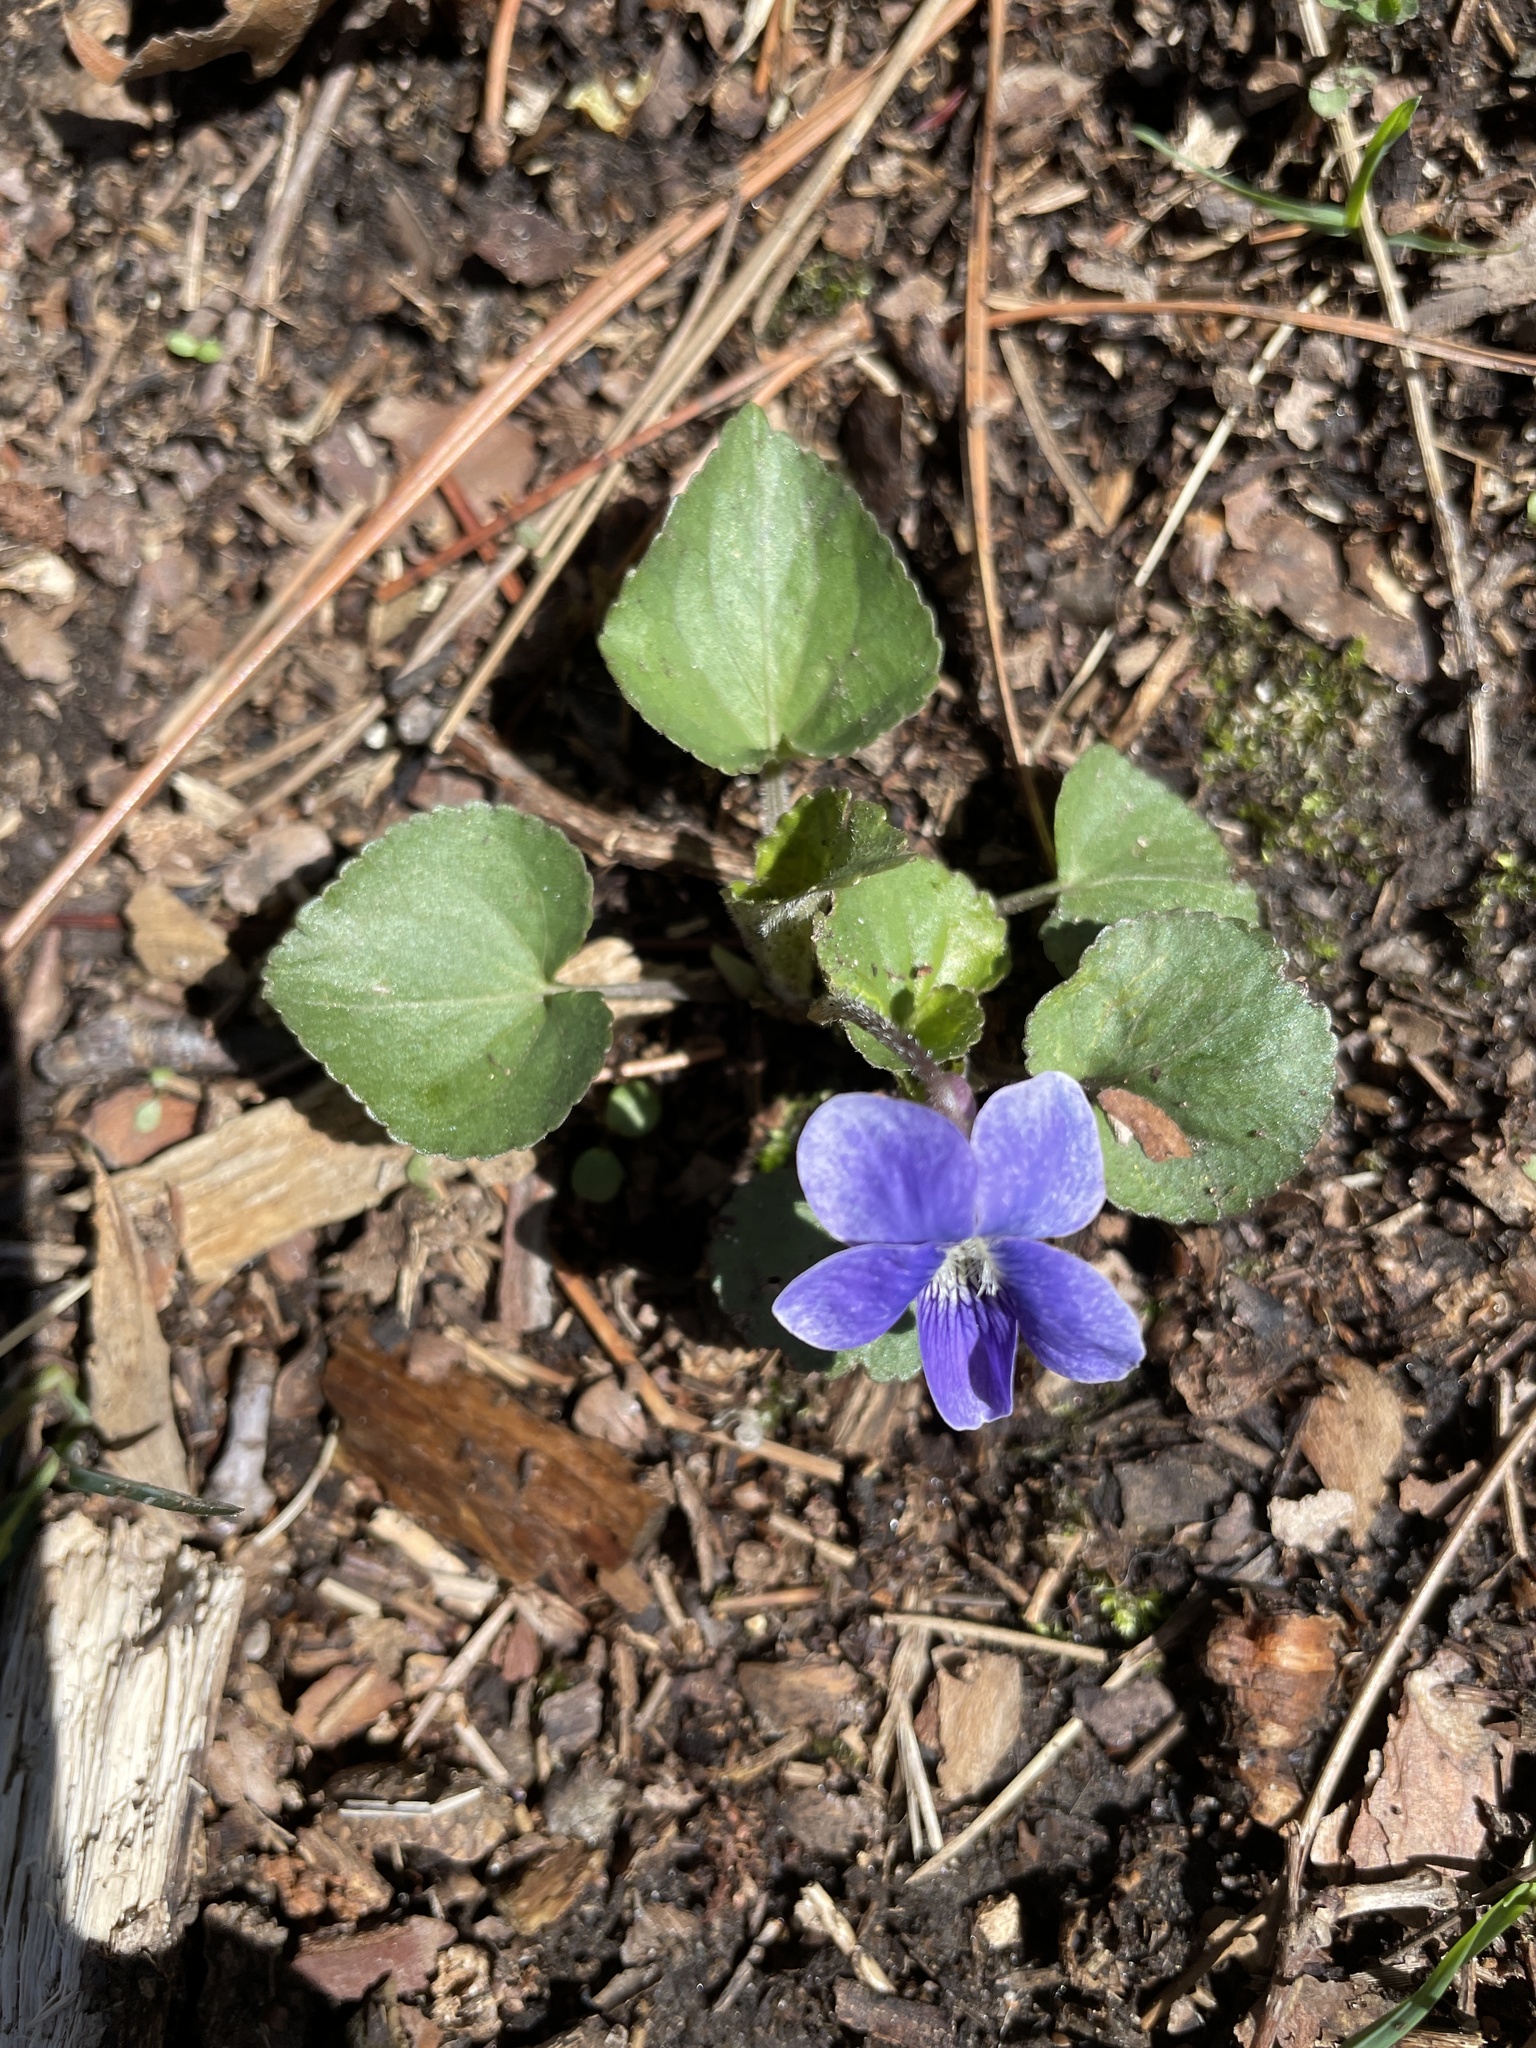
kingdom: Plantae
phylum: Tracheophyta
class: Magnoliopsida
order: Malpighiales
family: Violaceae
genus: Viola
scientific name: Viola sororia
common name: Dooryard violet
